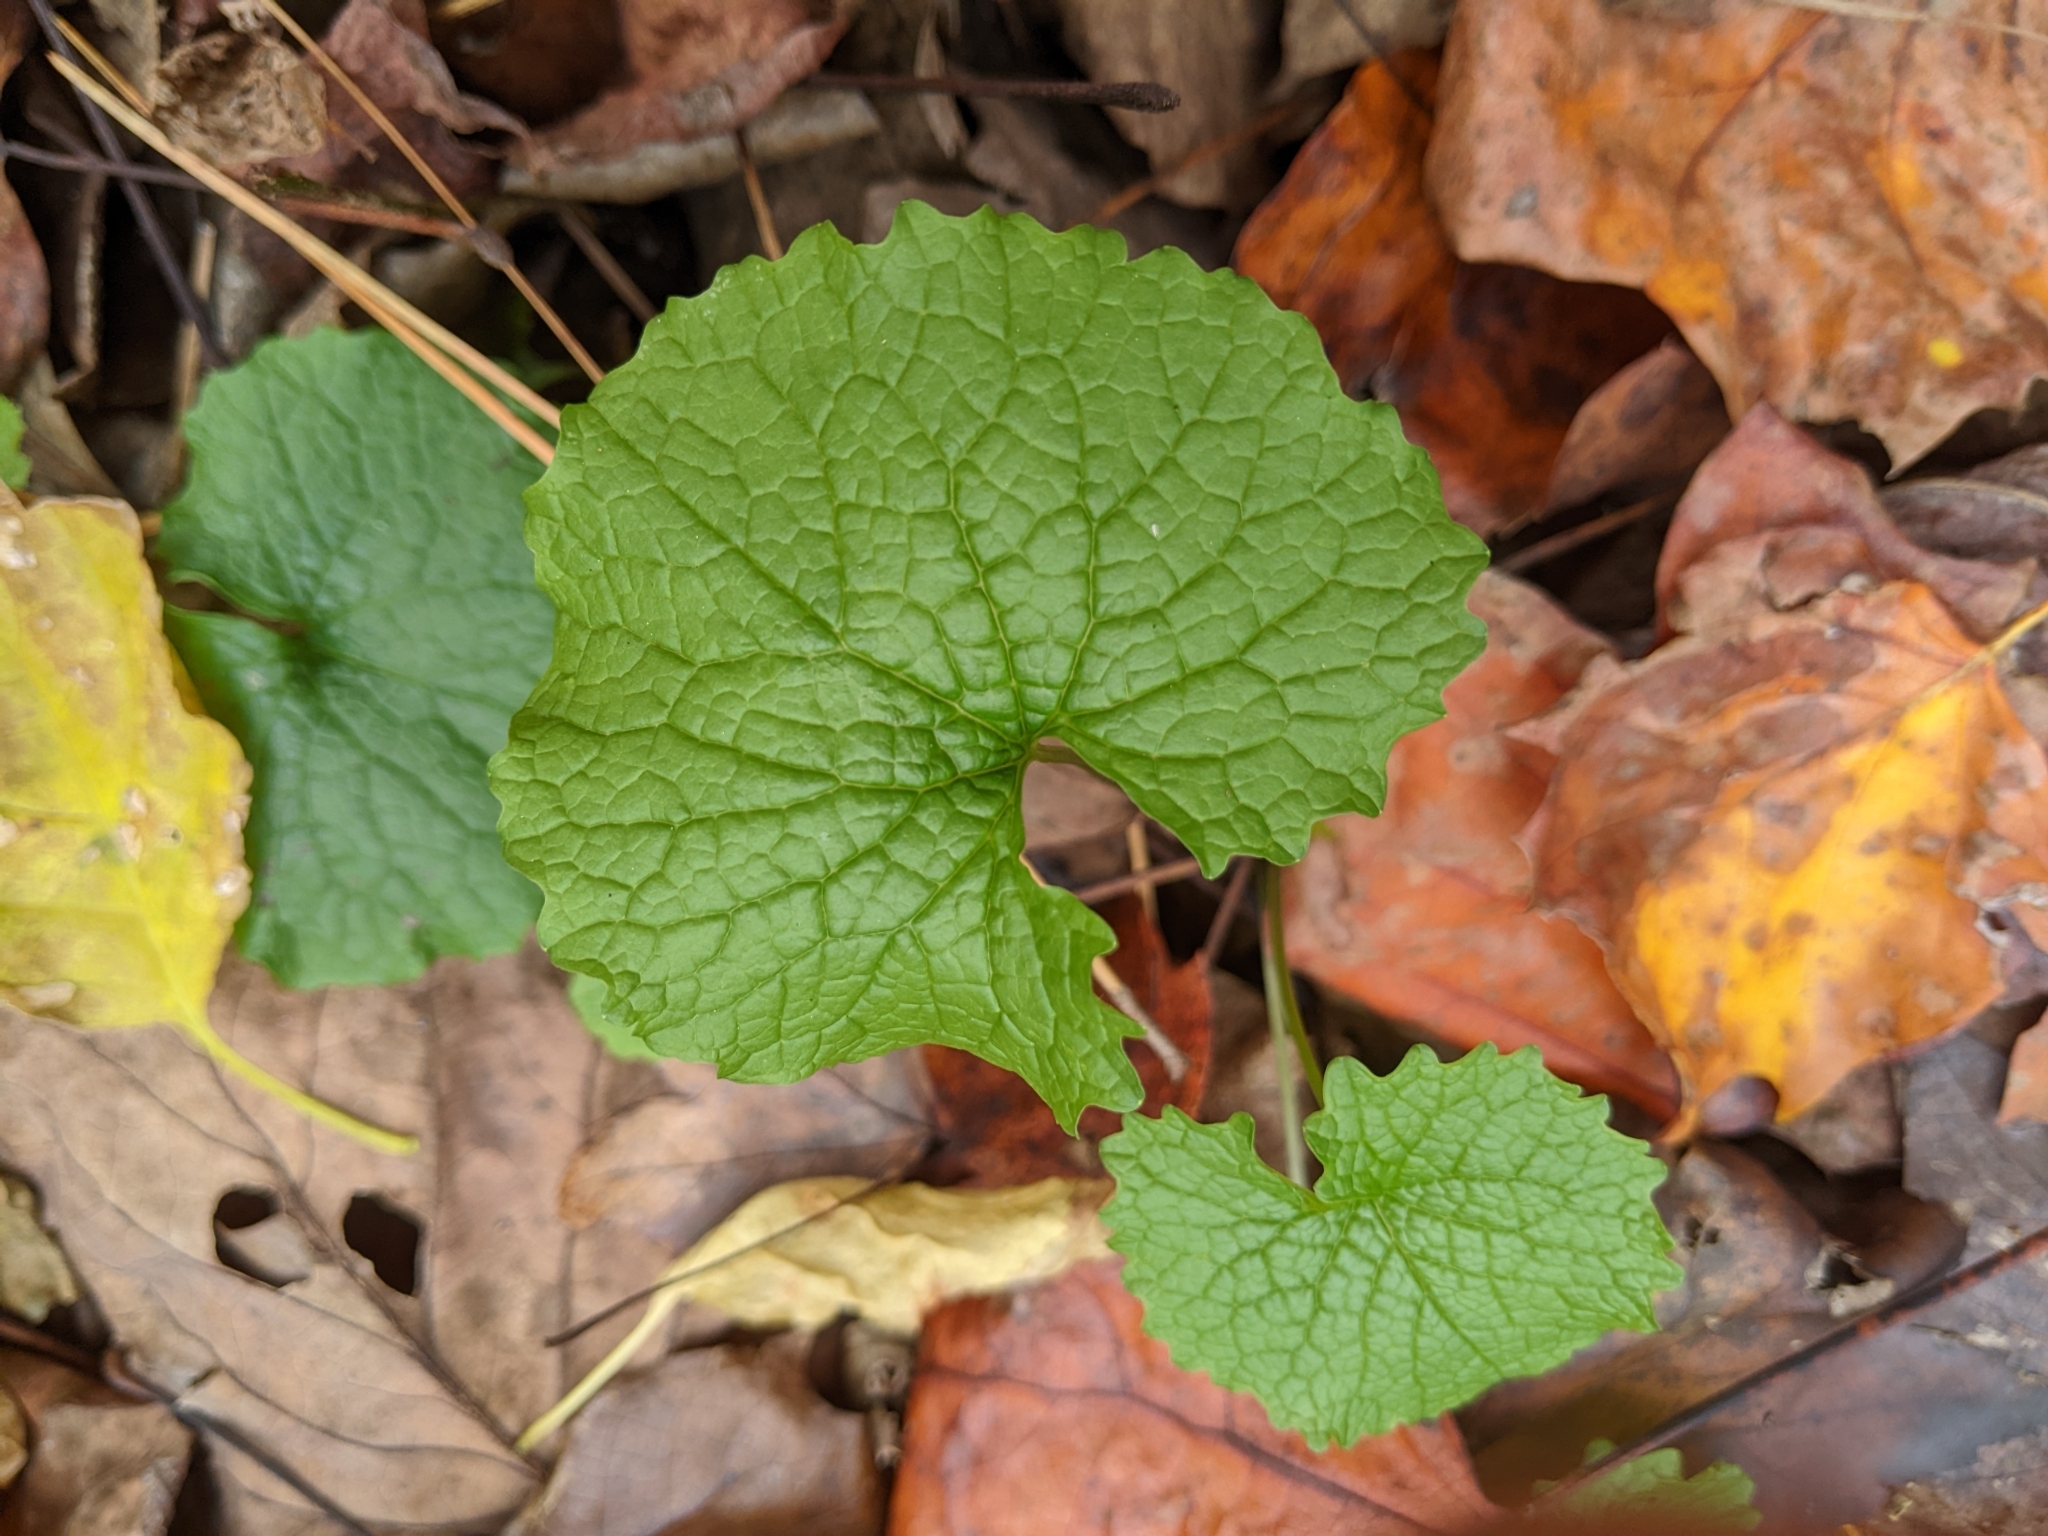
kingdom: Plantae
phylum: Tracheophyta
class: Magnoliopsida
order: Brassicales
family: Brassicaceae
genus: Alliaria
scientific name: Alliaria petiolata
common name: Garlic mustard
